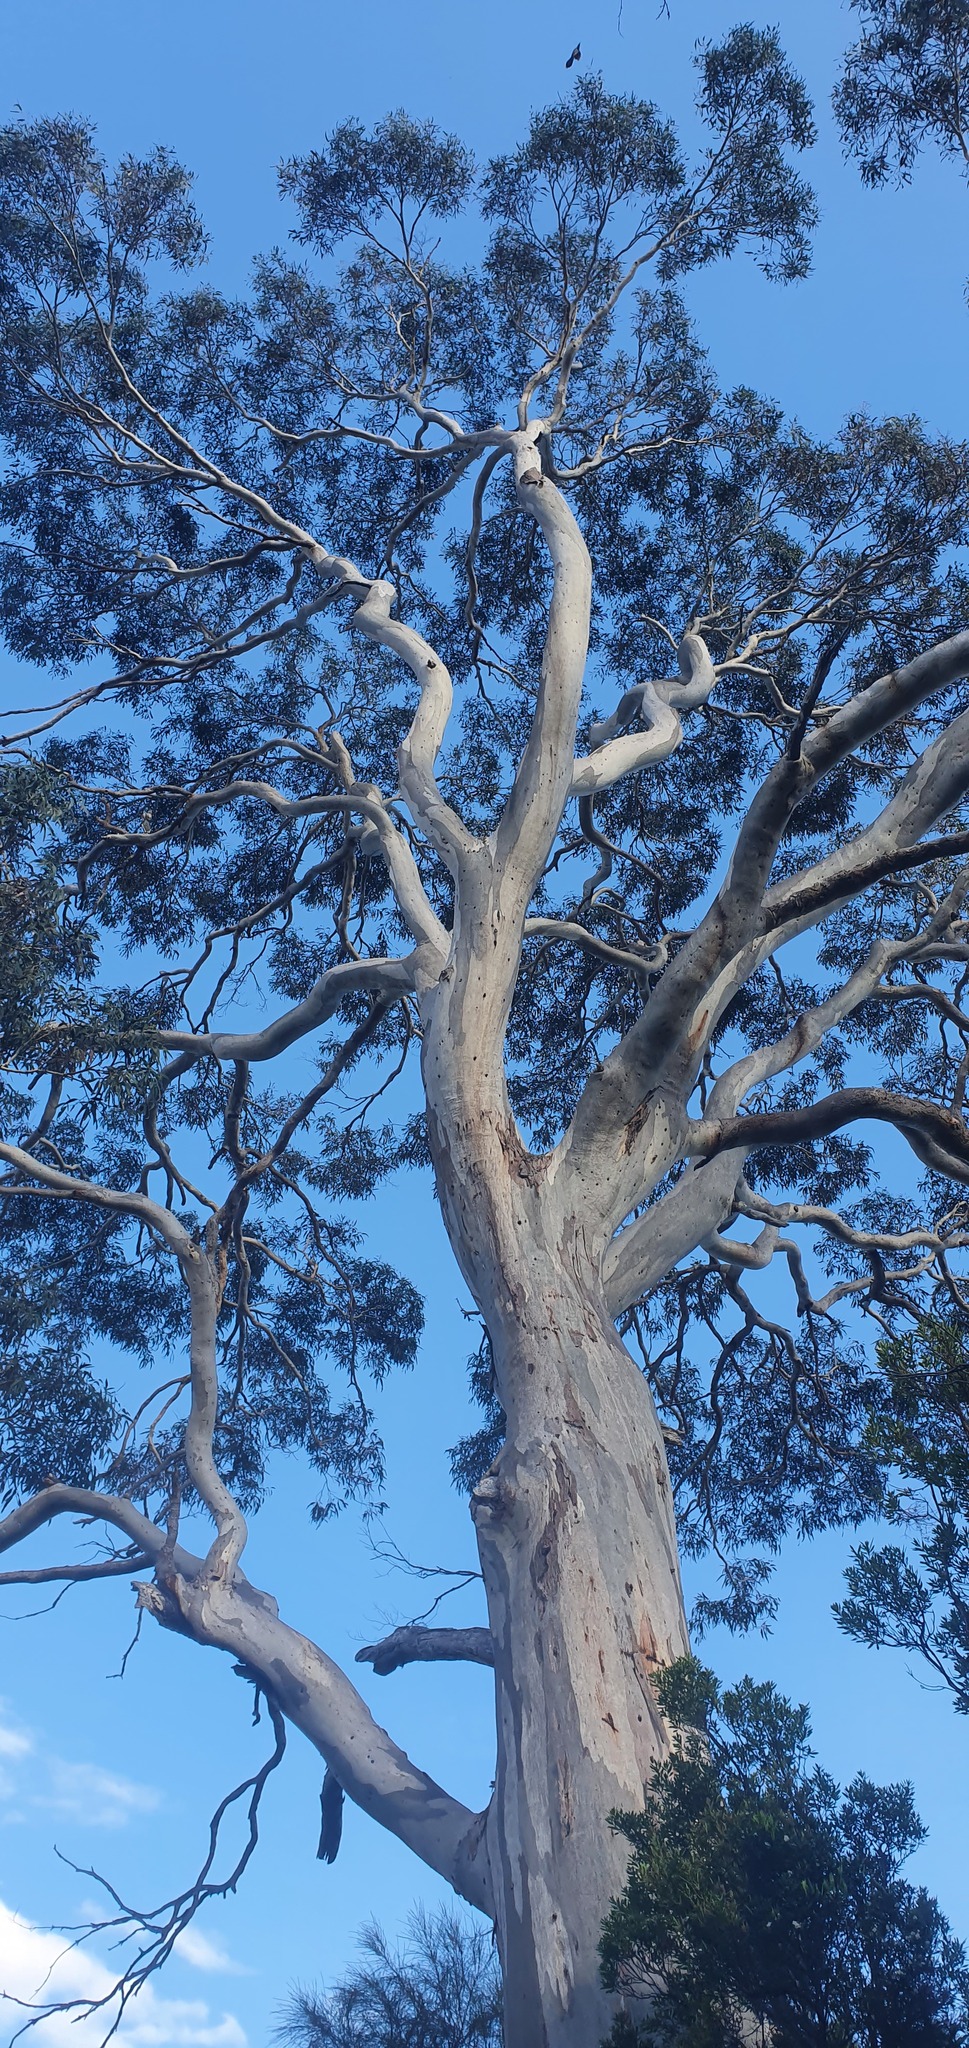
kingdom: Plantae
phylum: Tracheophyta
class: Magnoliopsida
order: Myrtales
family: Myrtaceae
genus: Eucalyptus
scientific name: Eucalyptus viminalis
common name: Manna gum
